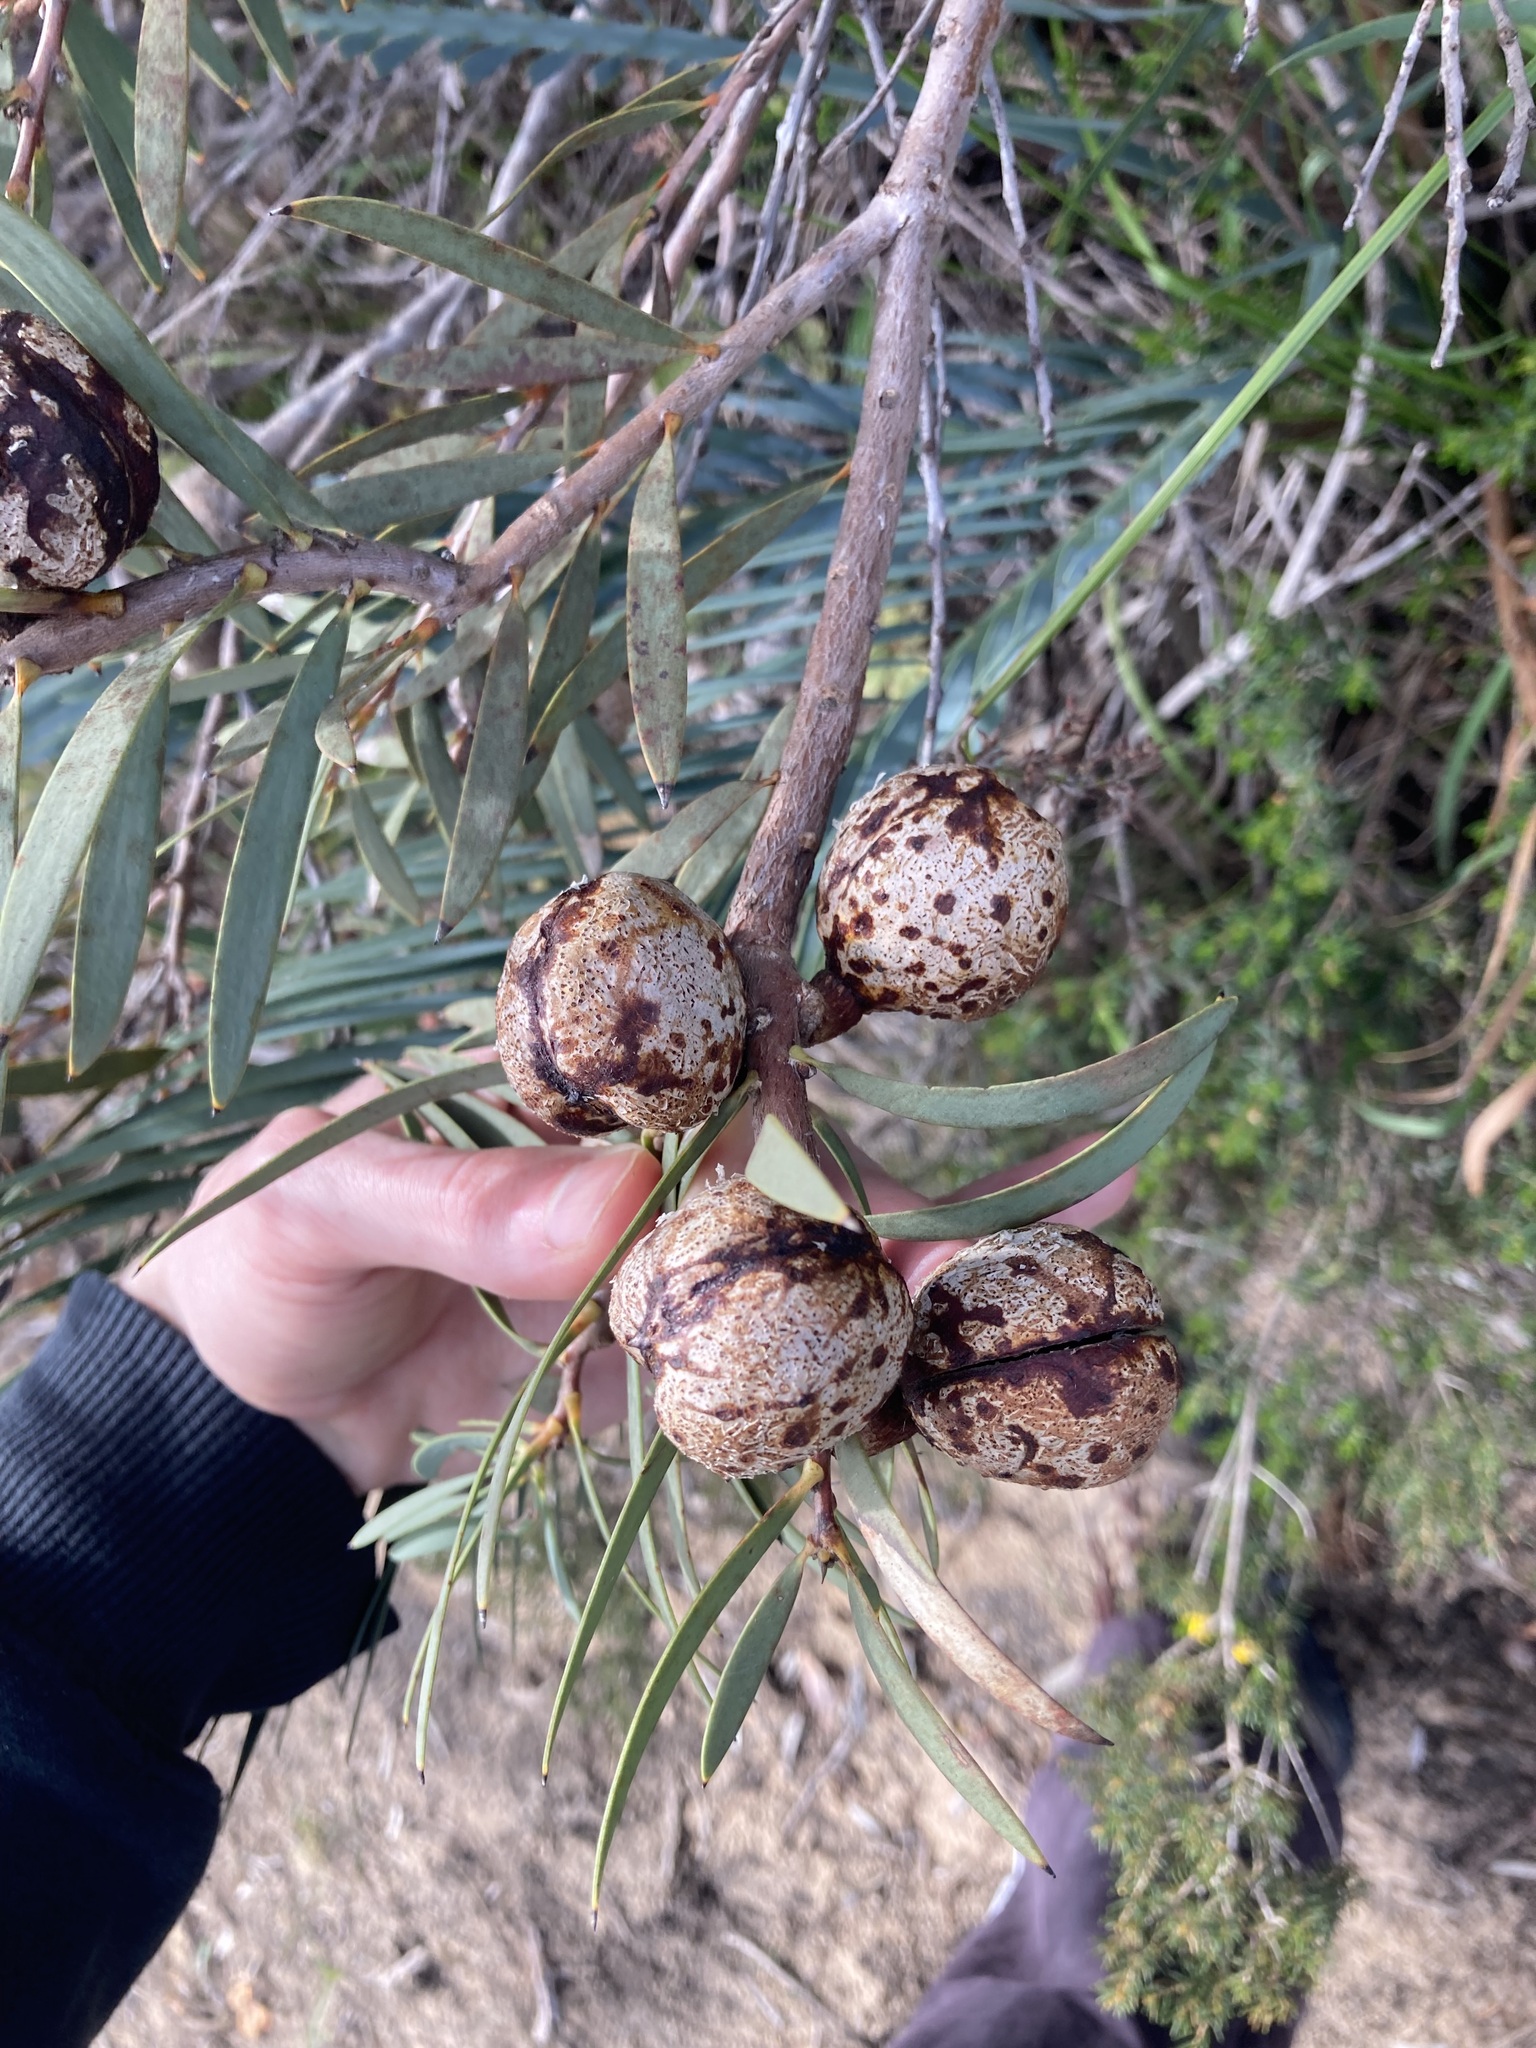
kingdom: Plantae
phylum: Tracheophyta
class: Magnoliopsida
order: Proteales
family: Proteaceae
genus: Hakea
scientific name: Hakea incrassata
